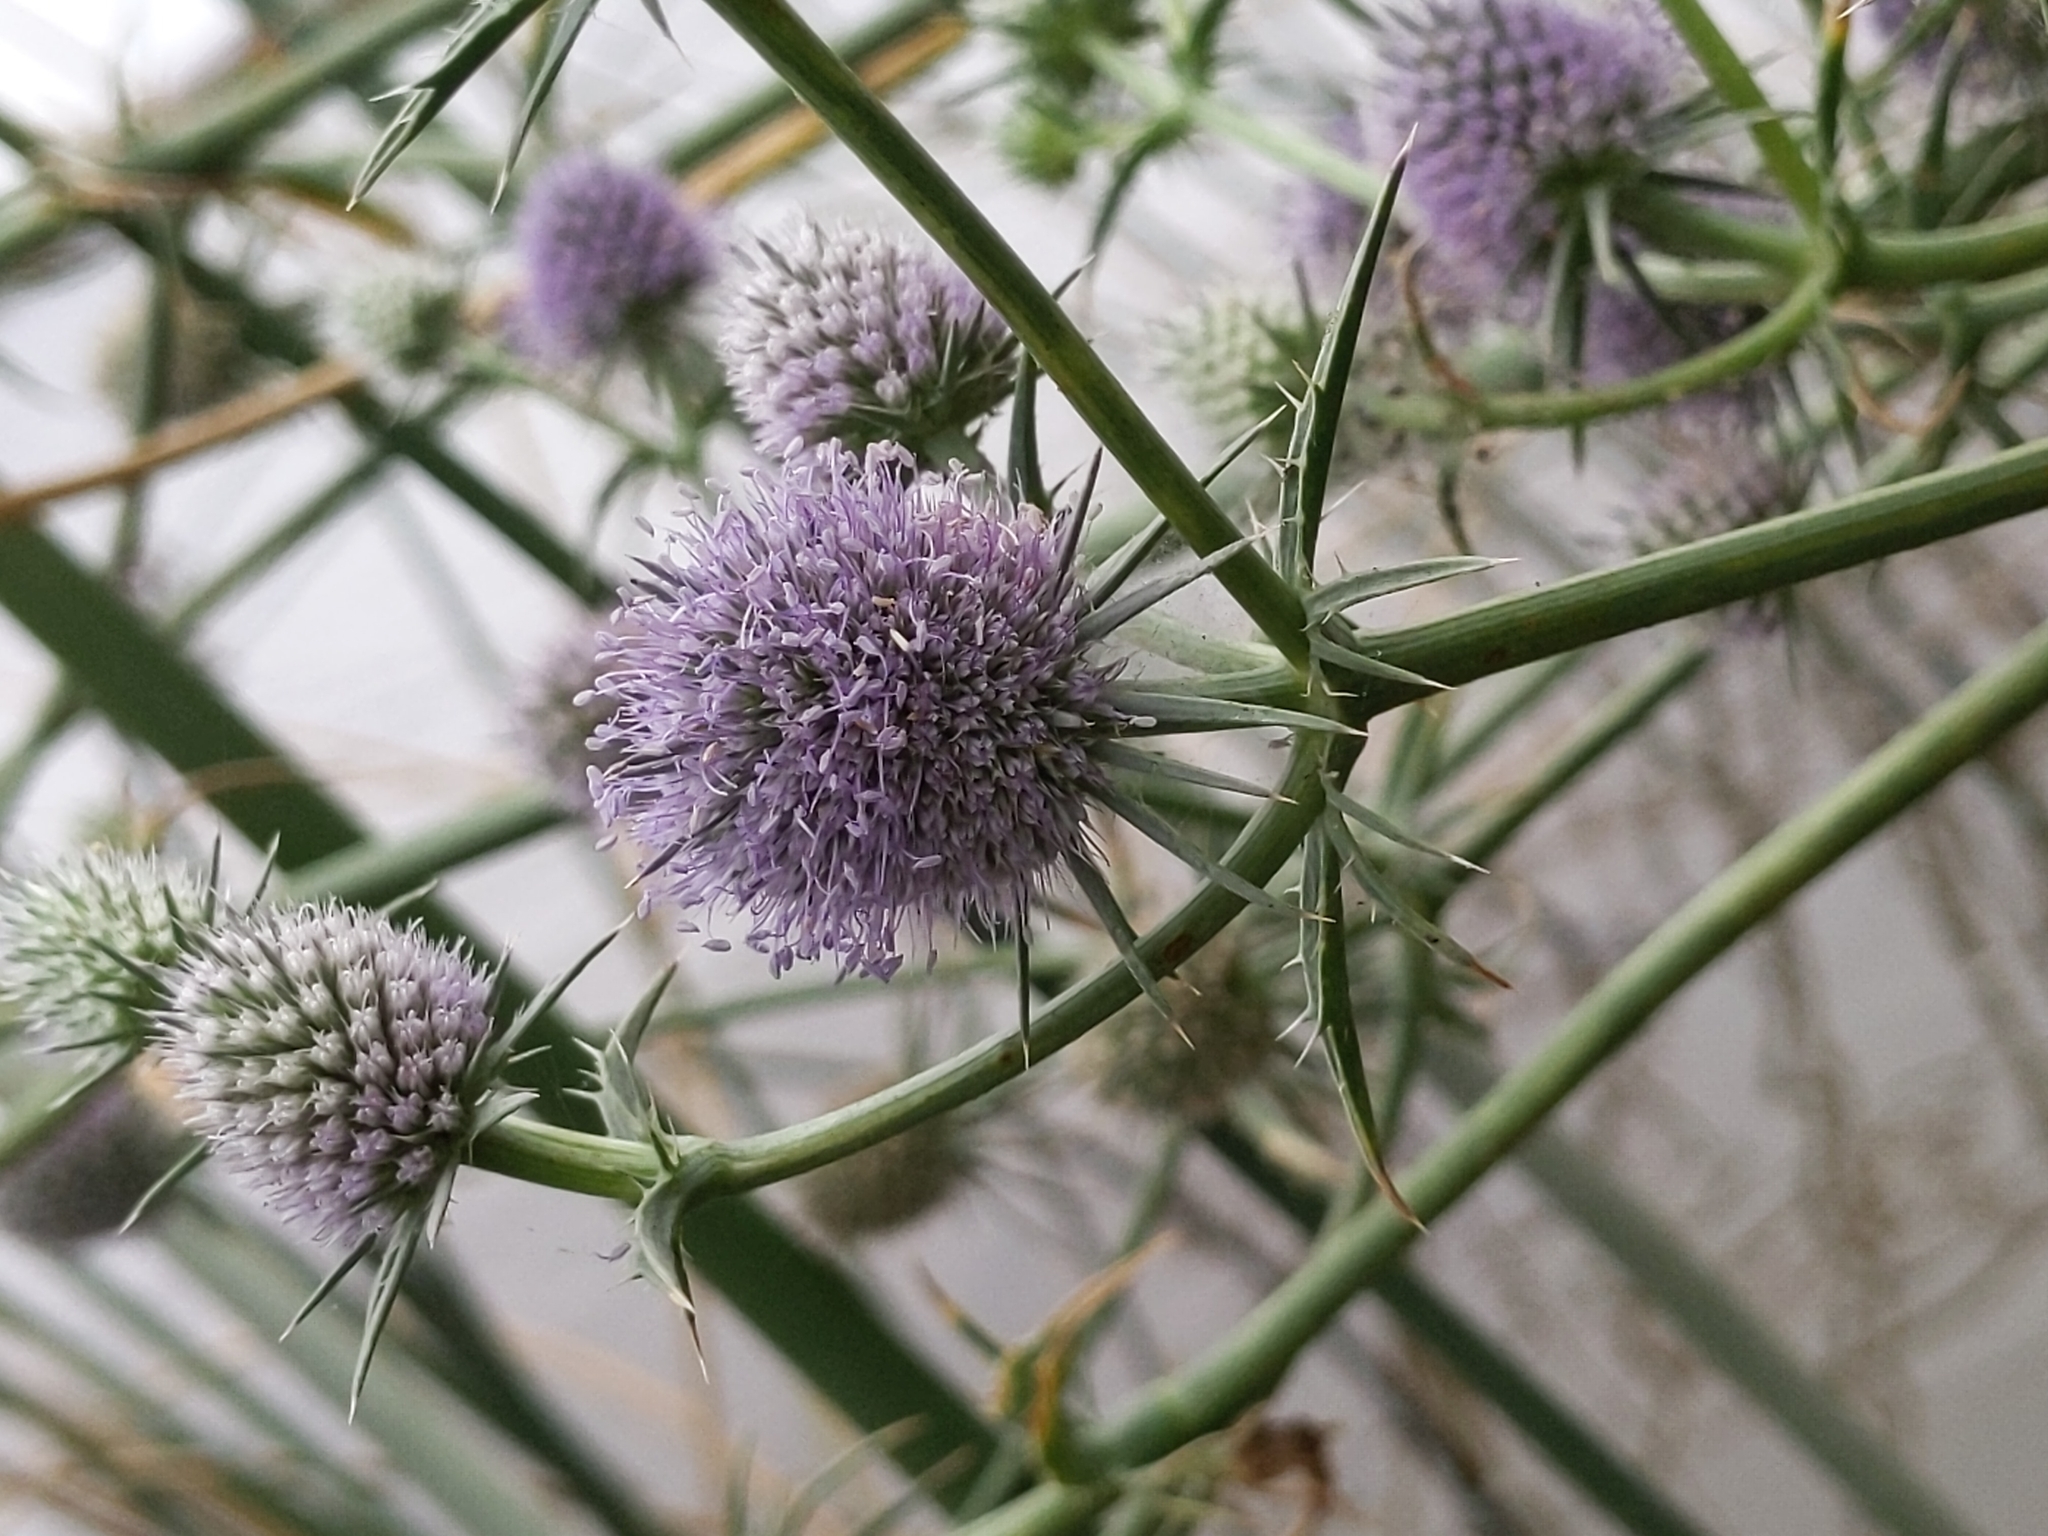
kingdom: Plantae
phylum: Tracheophyta
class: Magnoliopsida
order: Apiales
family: Apiaceae
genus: Eryngium
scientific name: Eryngium articulatum
